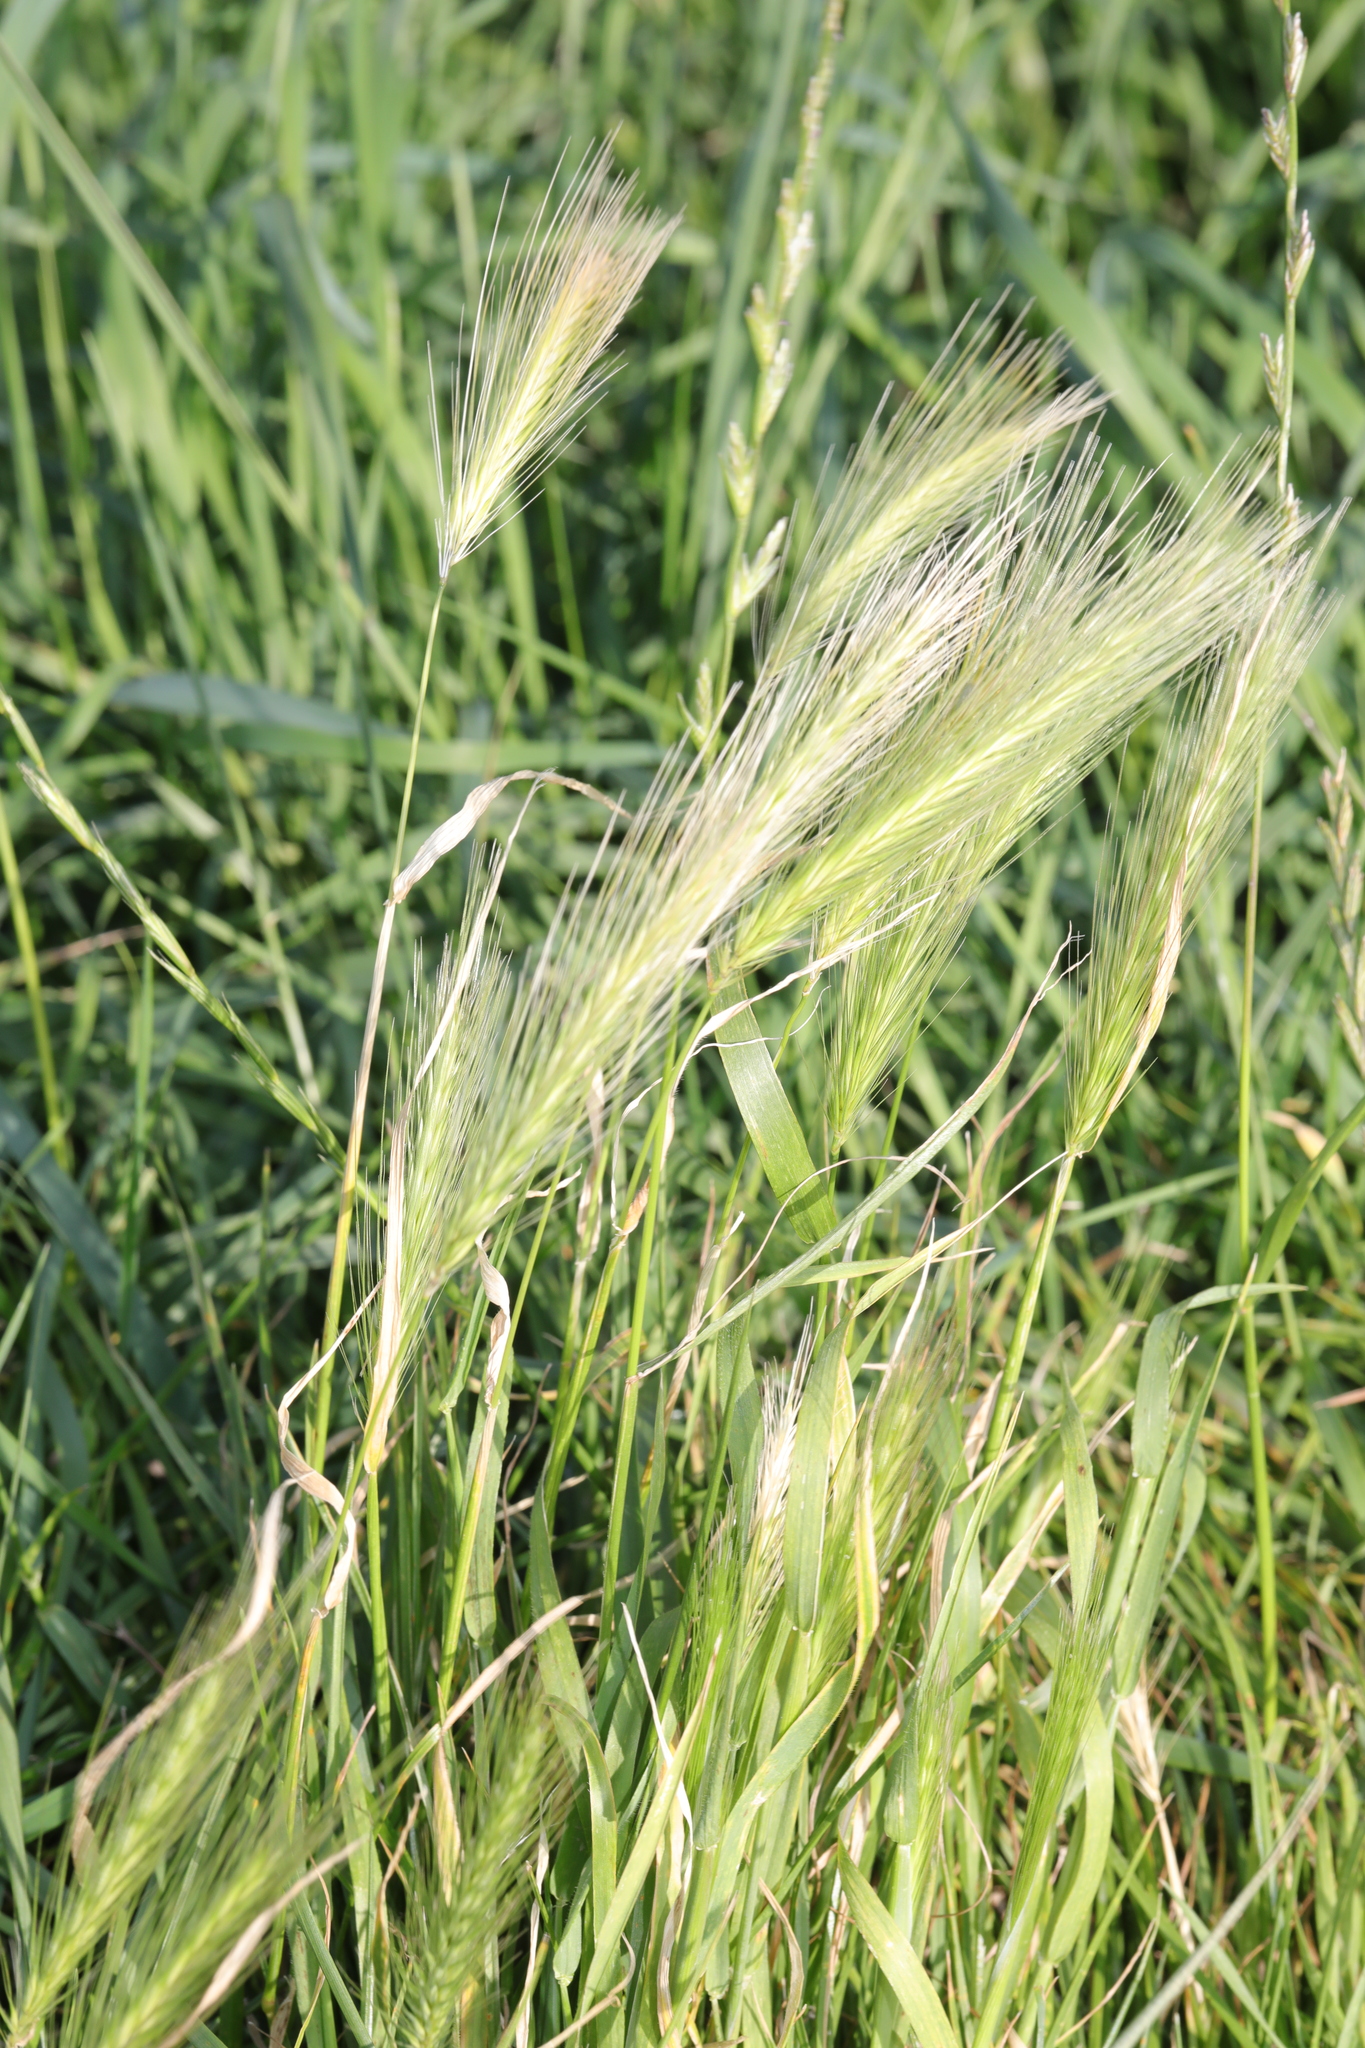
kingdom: Plantae
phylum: Tracheophyta
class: Liliopsida
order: Poales
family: Poaceae
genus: Hordeum
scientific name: Hordeum murinum
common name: Wall barley
